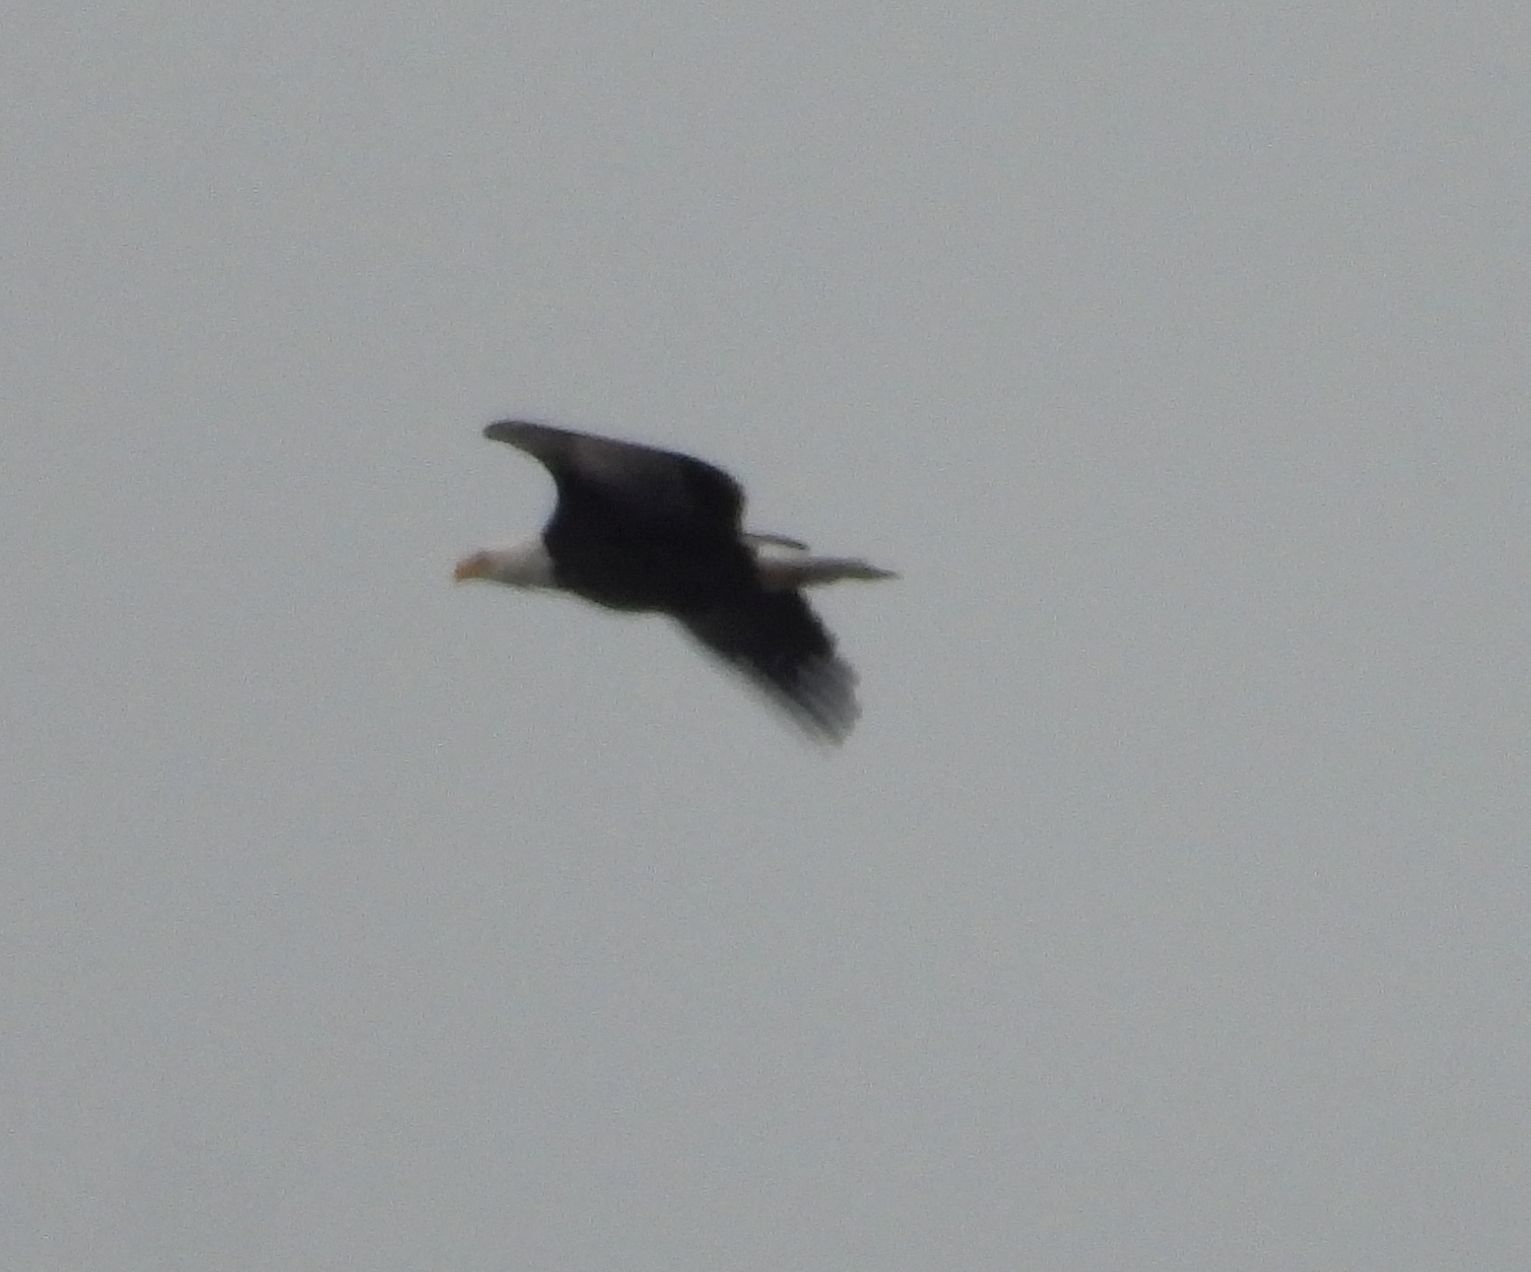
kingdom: Animalia
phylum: Chordata
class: Aves
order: Accipitriformes
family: Accipitridae
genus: Haliaeetus
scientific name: Haliaeetus leucocephalus
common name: Bald eagle
